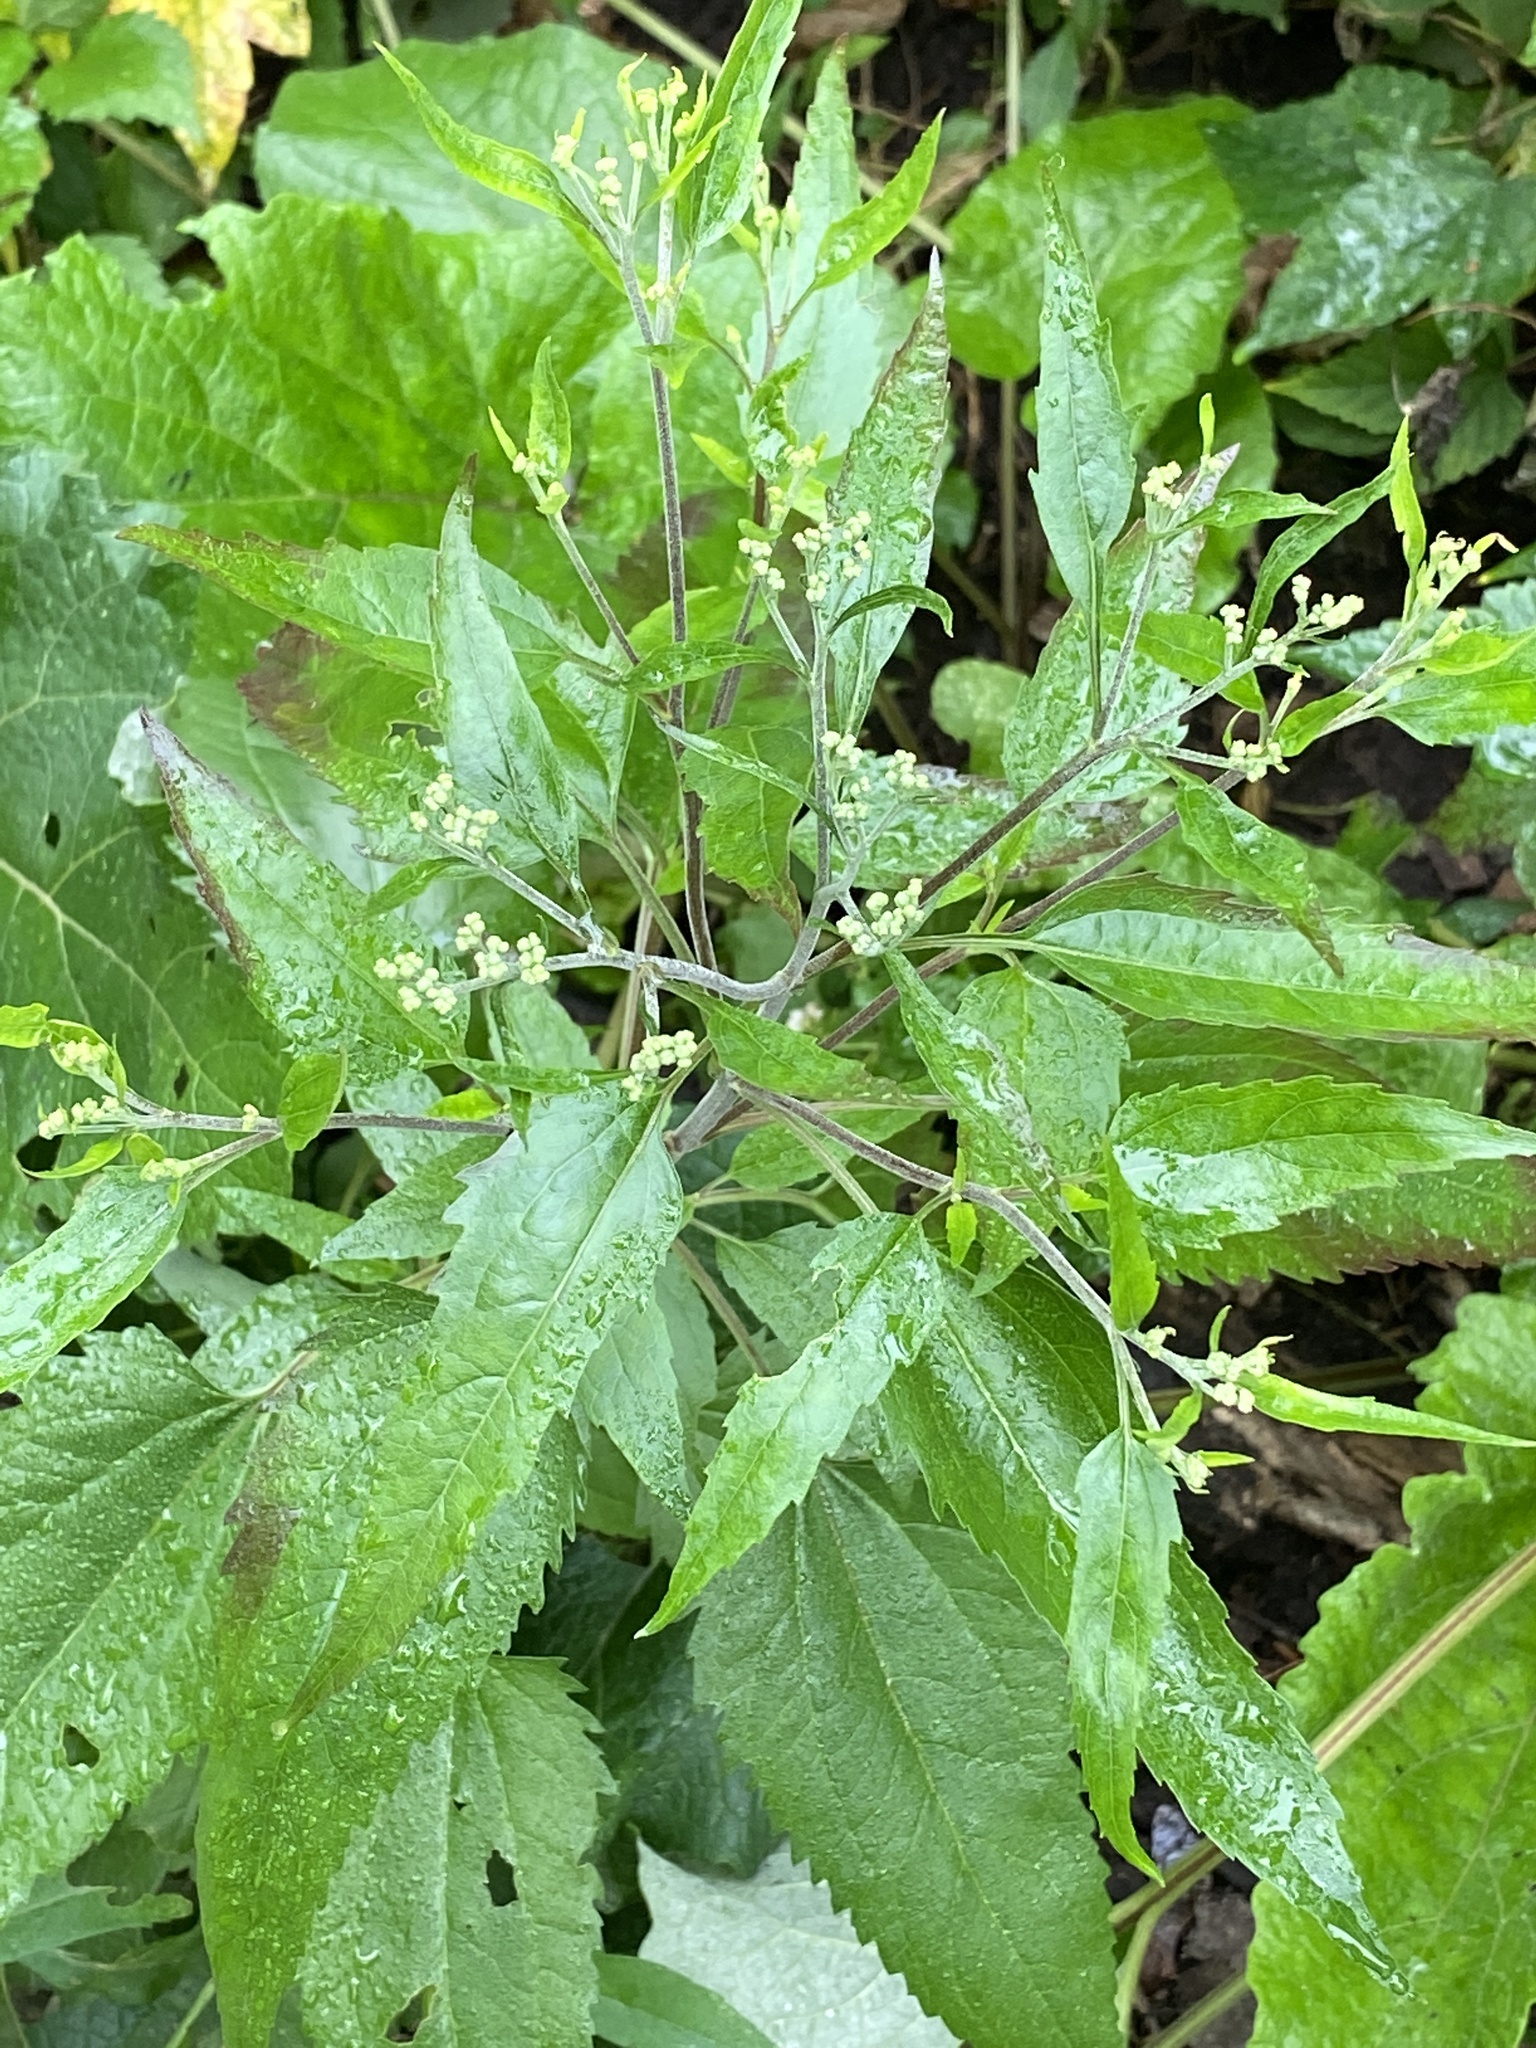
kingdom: Plantae
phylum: Tracheophyta
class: Magnoliopsida
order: Asterales
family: Asteraceae
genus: Eupatorium
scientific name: Eupatorium serotinum
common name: Late boneset
